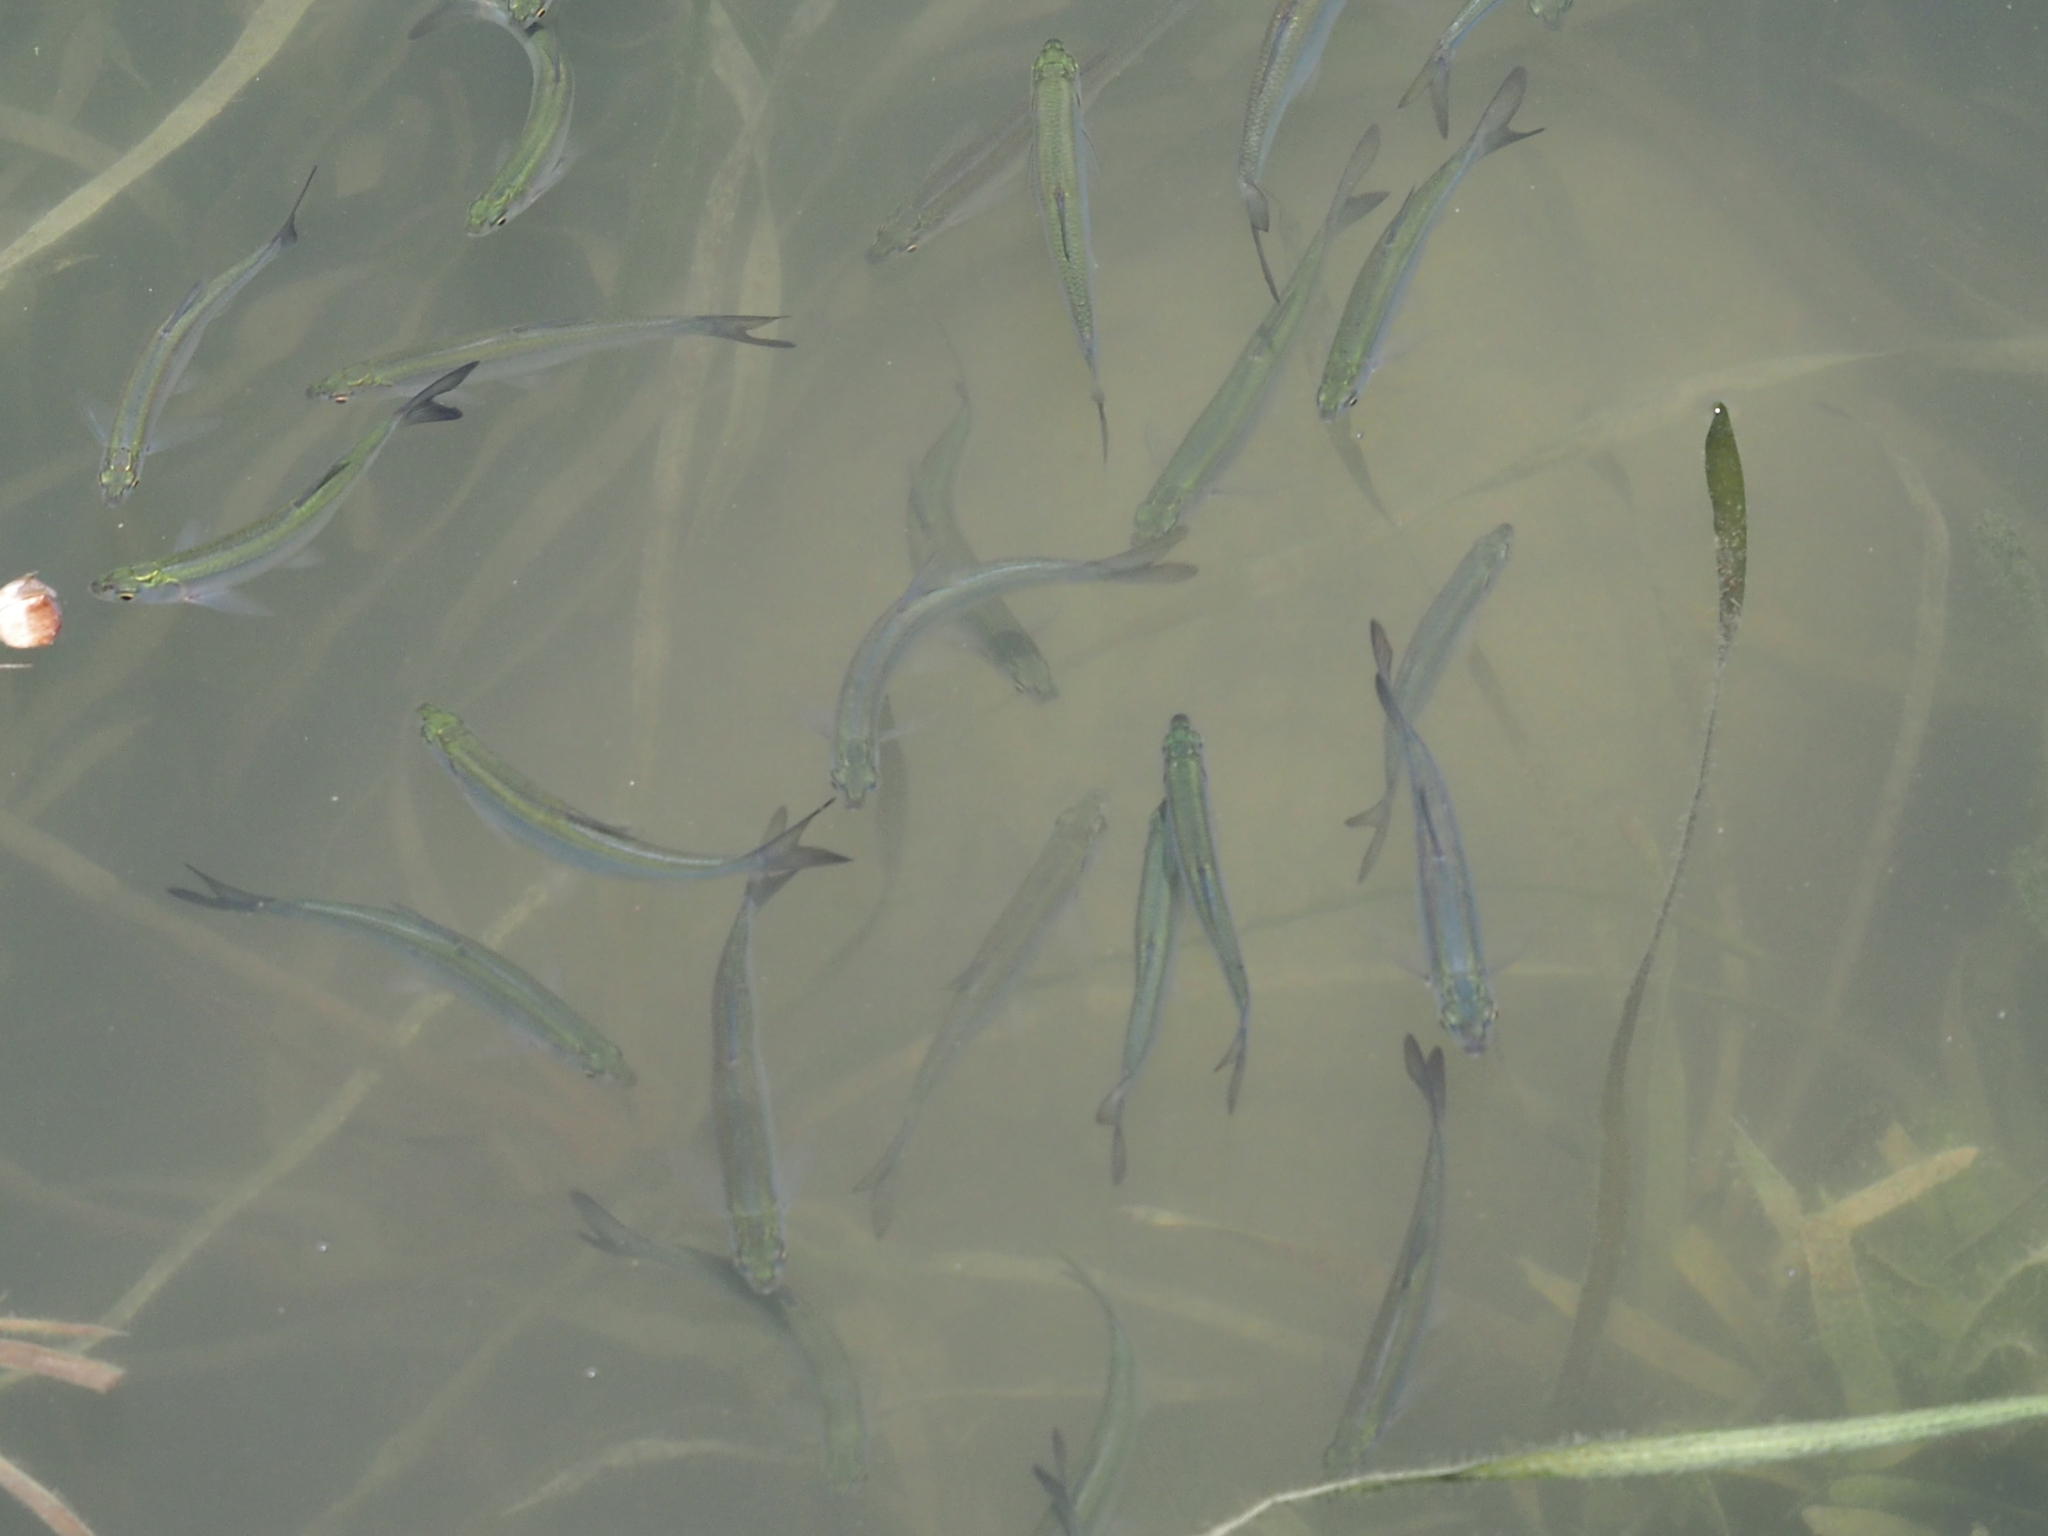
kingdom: Animalia
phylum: Chordata
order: Cypriniformes
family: Cyprinidae
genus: Hemiculter
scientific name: Hemiculter leucisculus
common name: Common sawbelly
